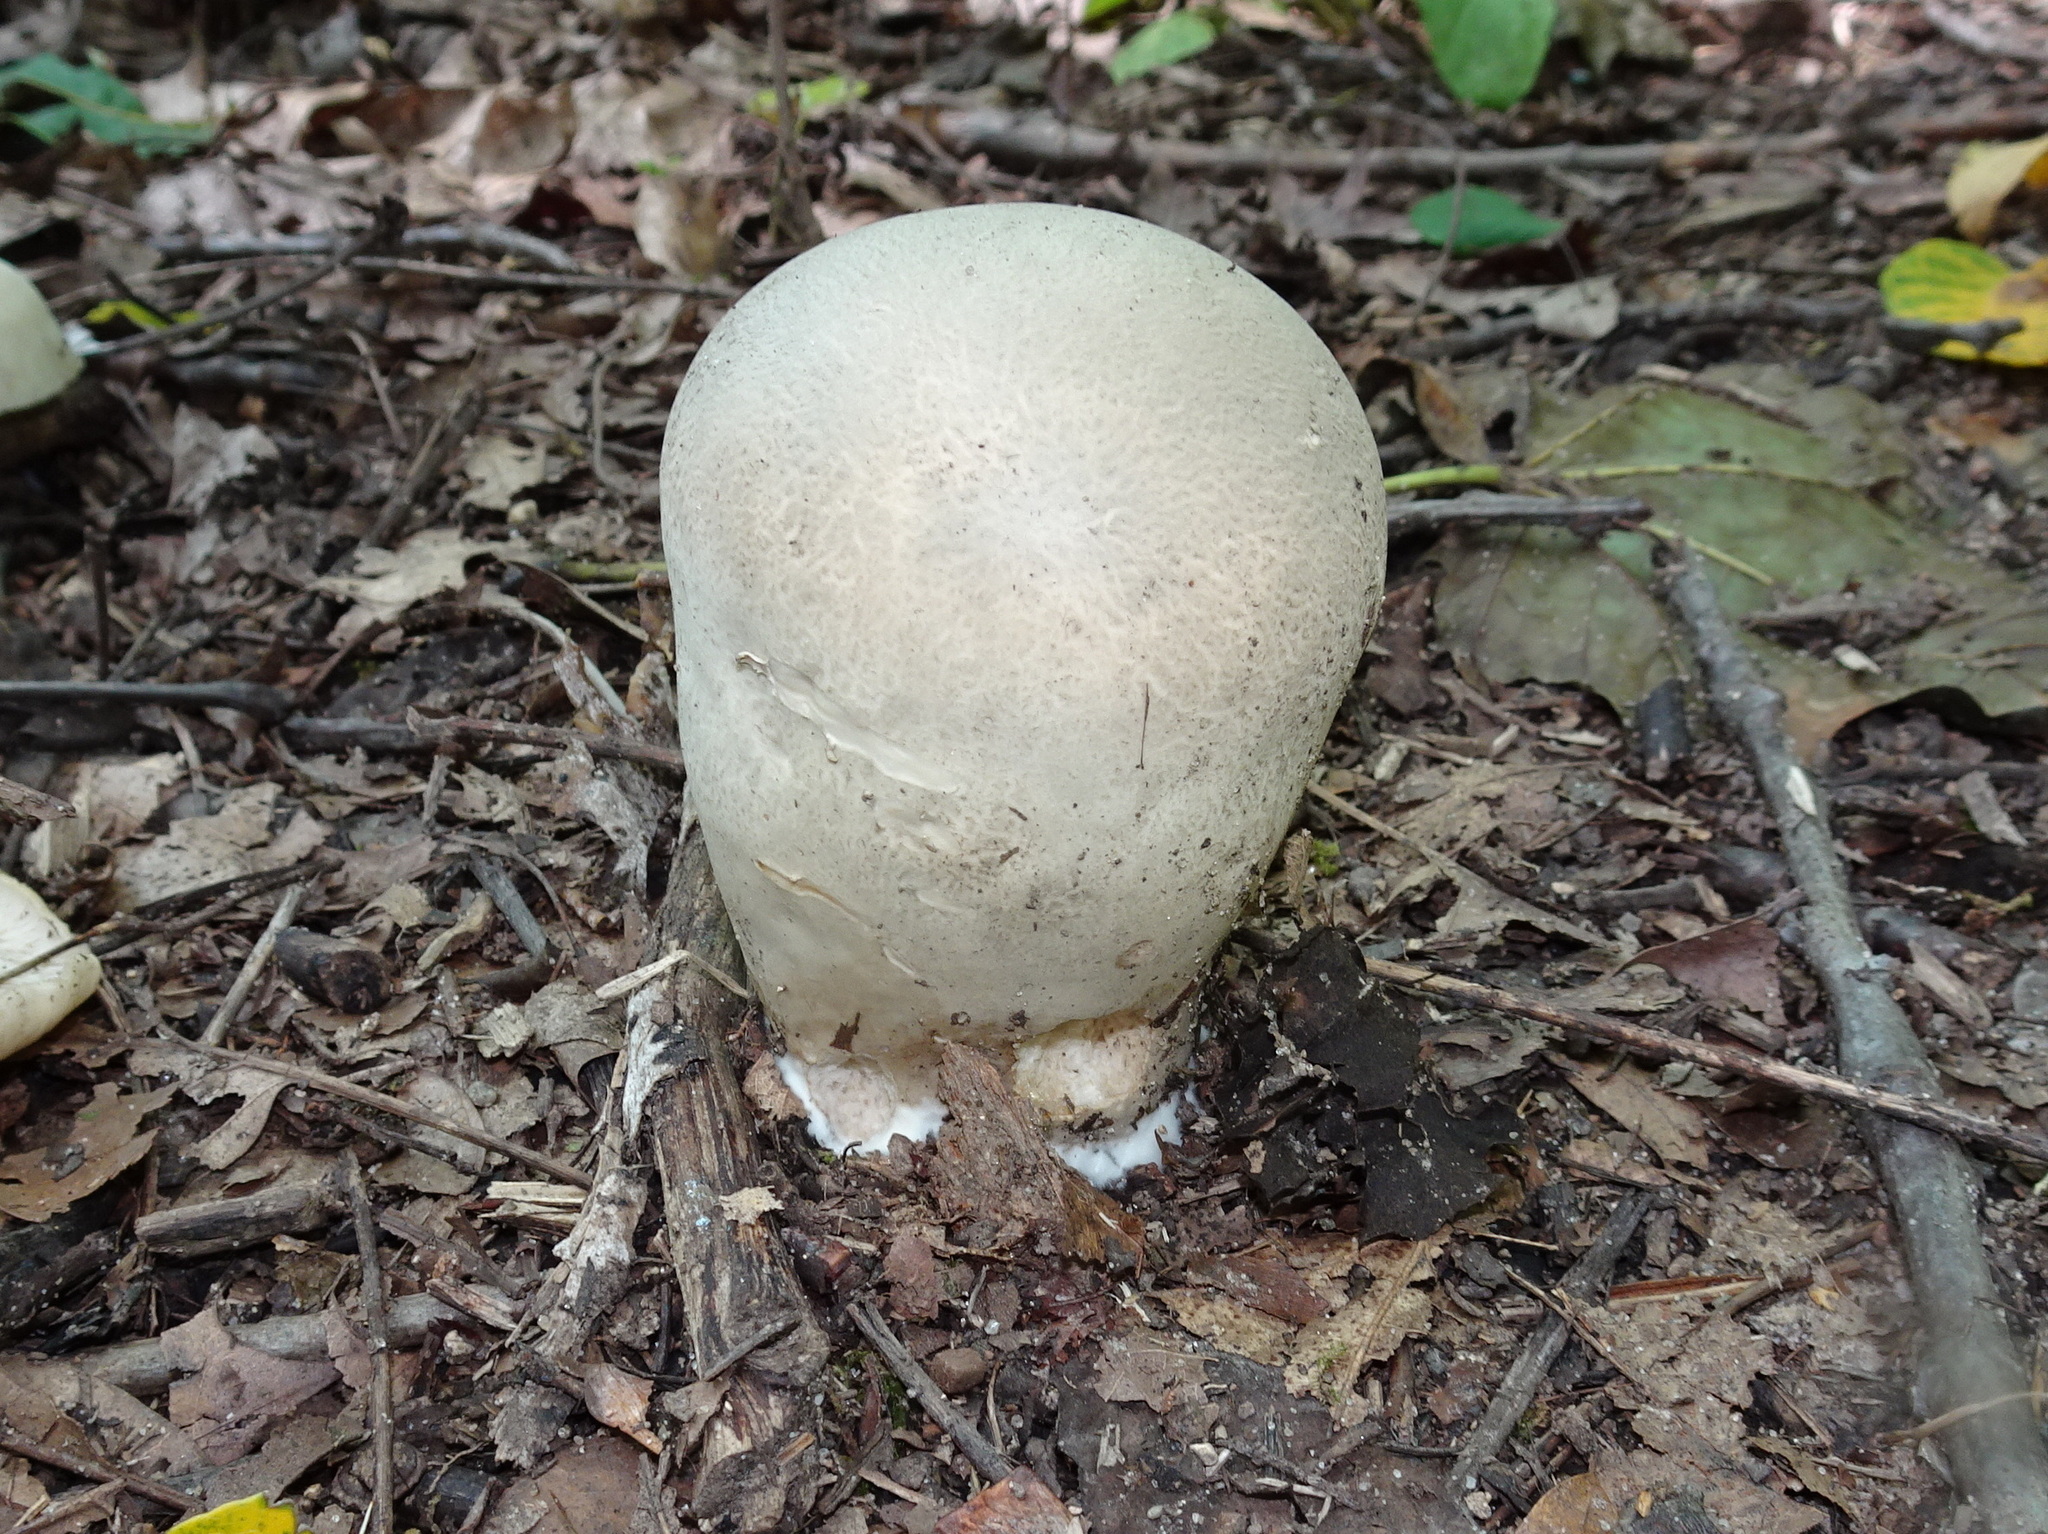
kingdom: Fungi
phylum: Basidiomycota
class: Agaricomycetes
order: Agaricales
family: Lycoperdaceae
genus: Calvatia
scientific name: Calvatia gigantea
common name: Giant puffball
